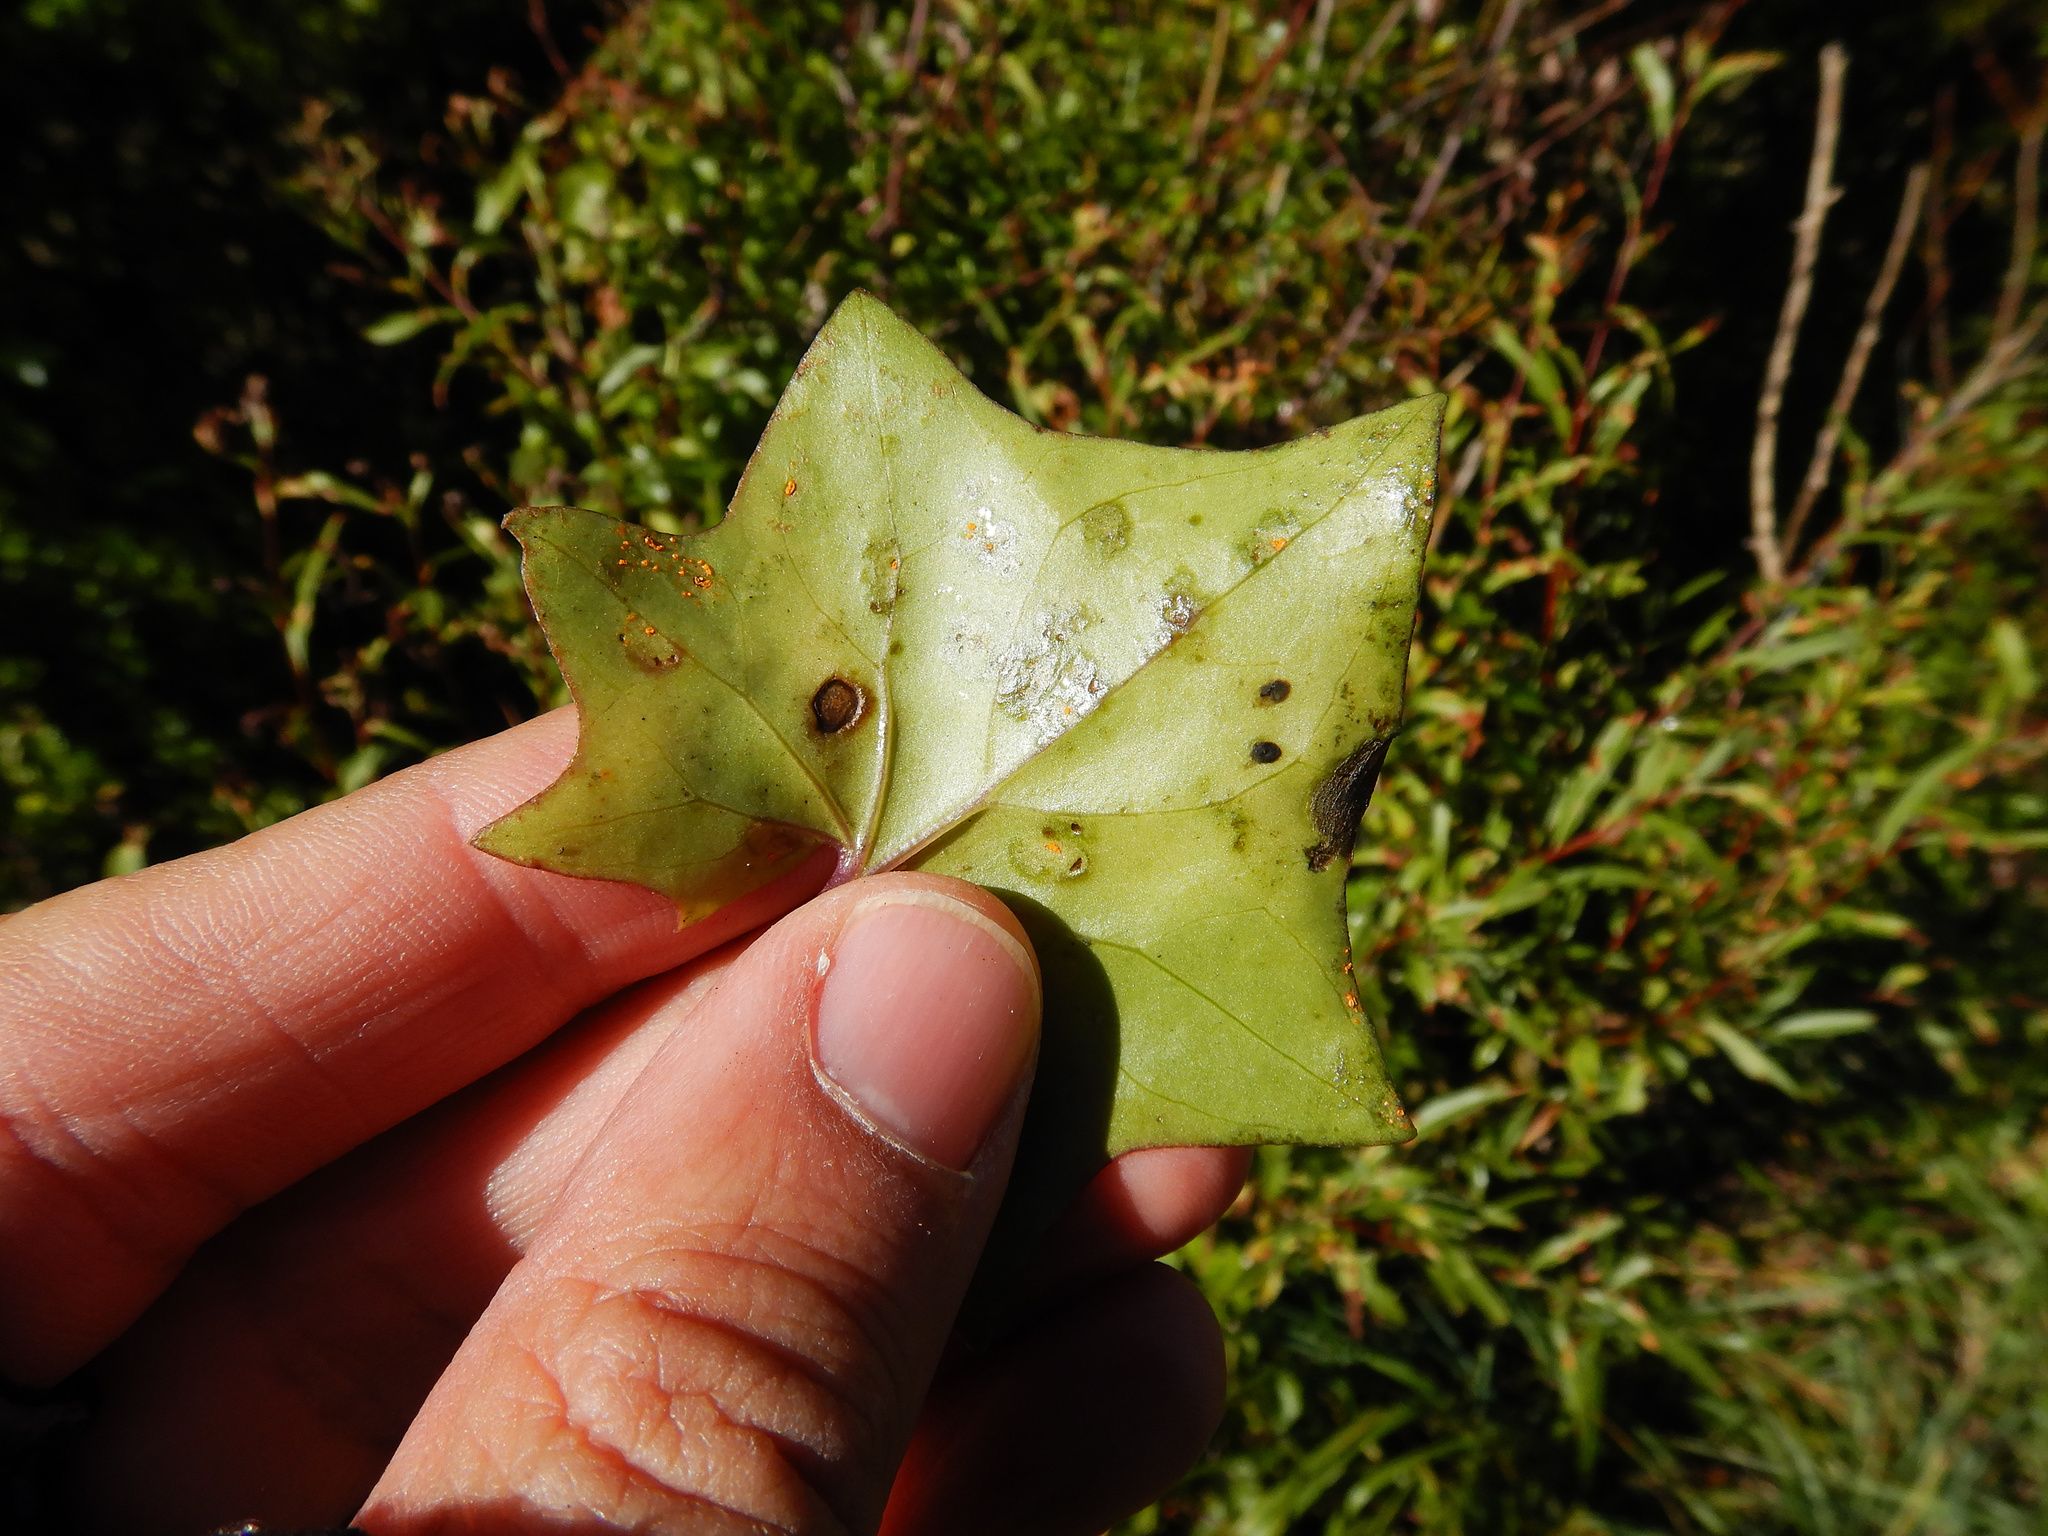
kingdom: Fungi
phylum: Basidiomycota
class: Pucciniomycetes
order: Pucciniales
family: Coleosporiaceae
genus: Coleosporium
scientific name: Coleosporium tussilaginis
